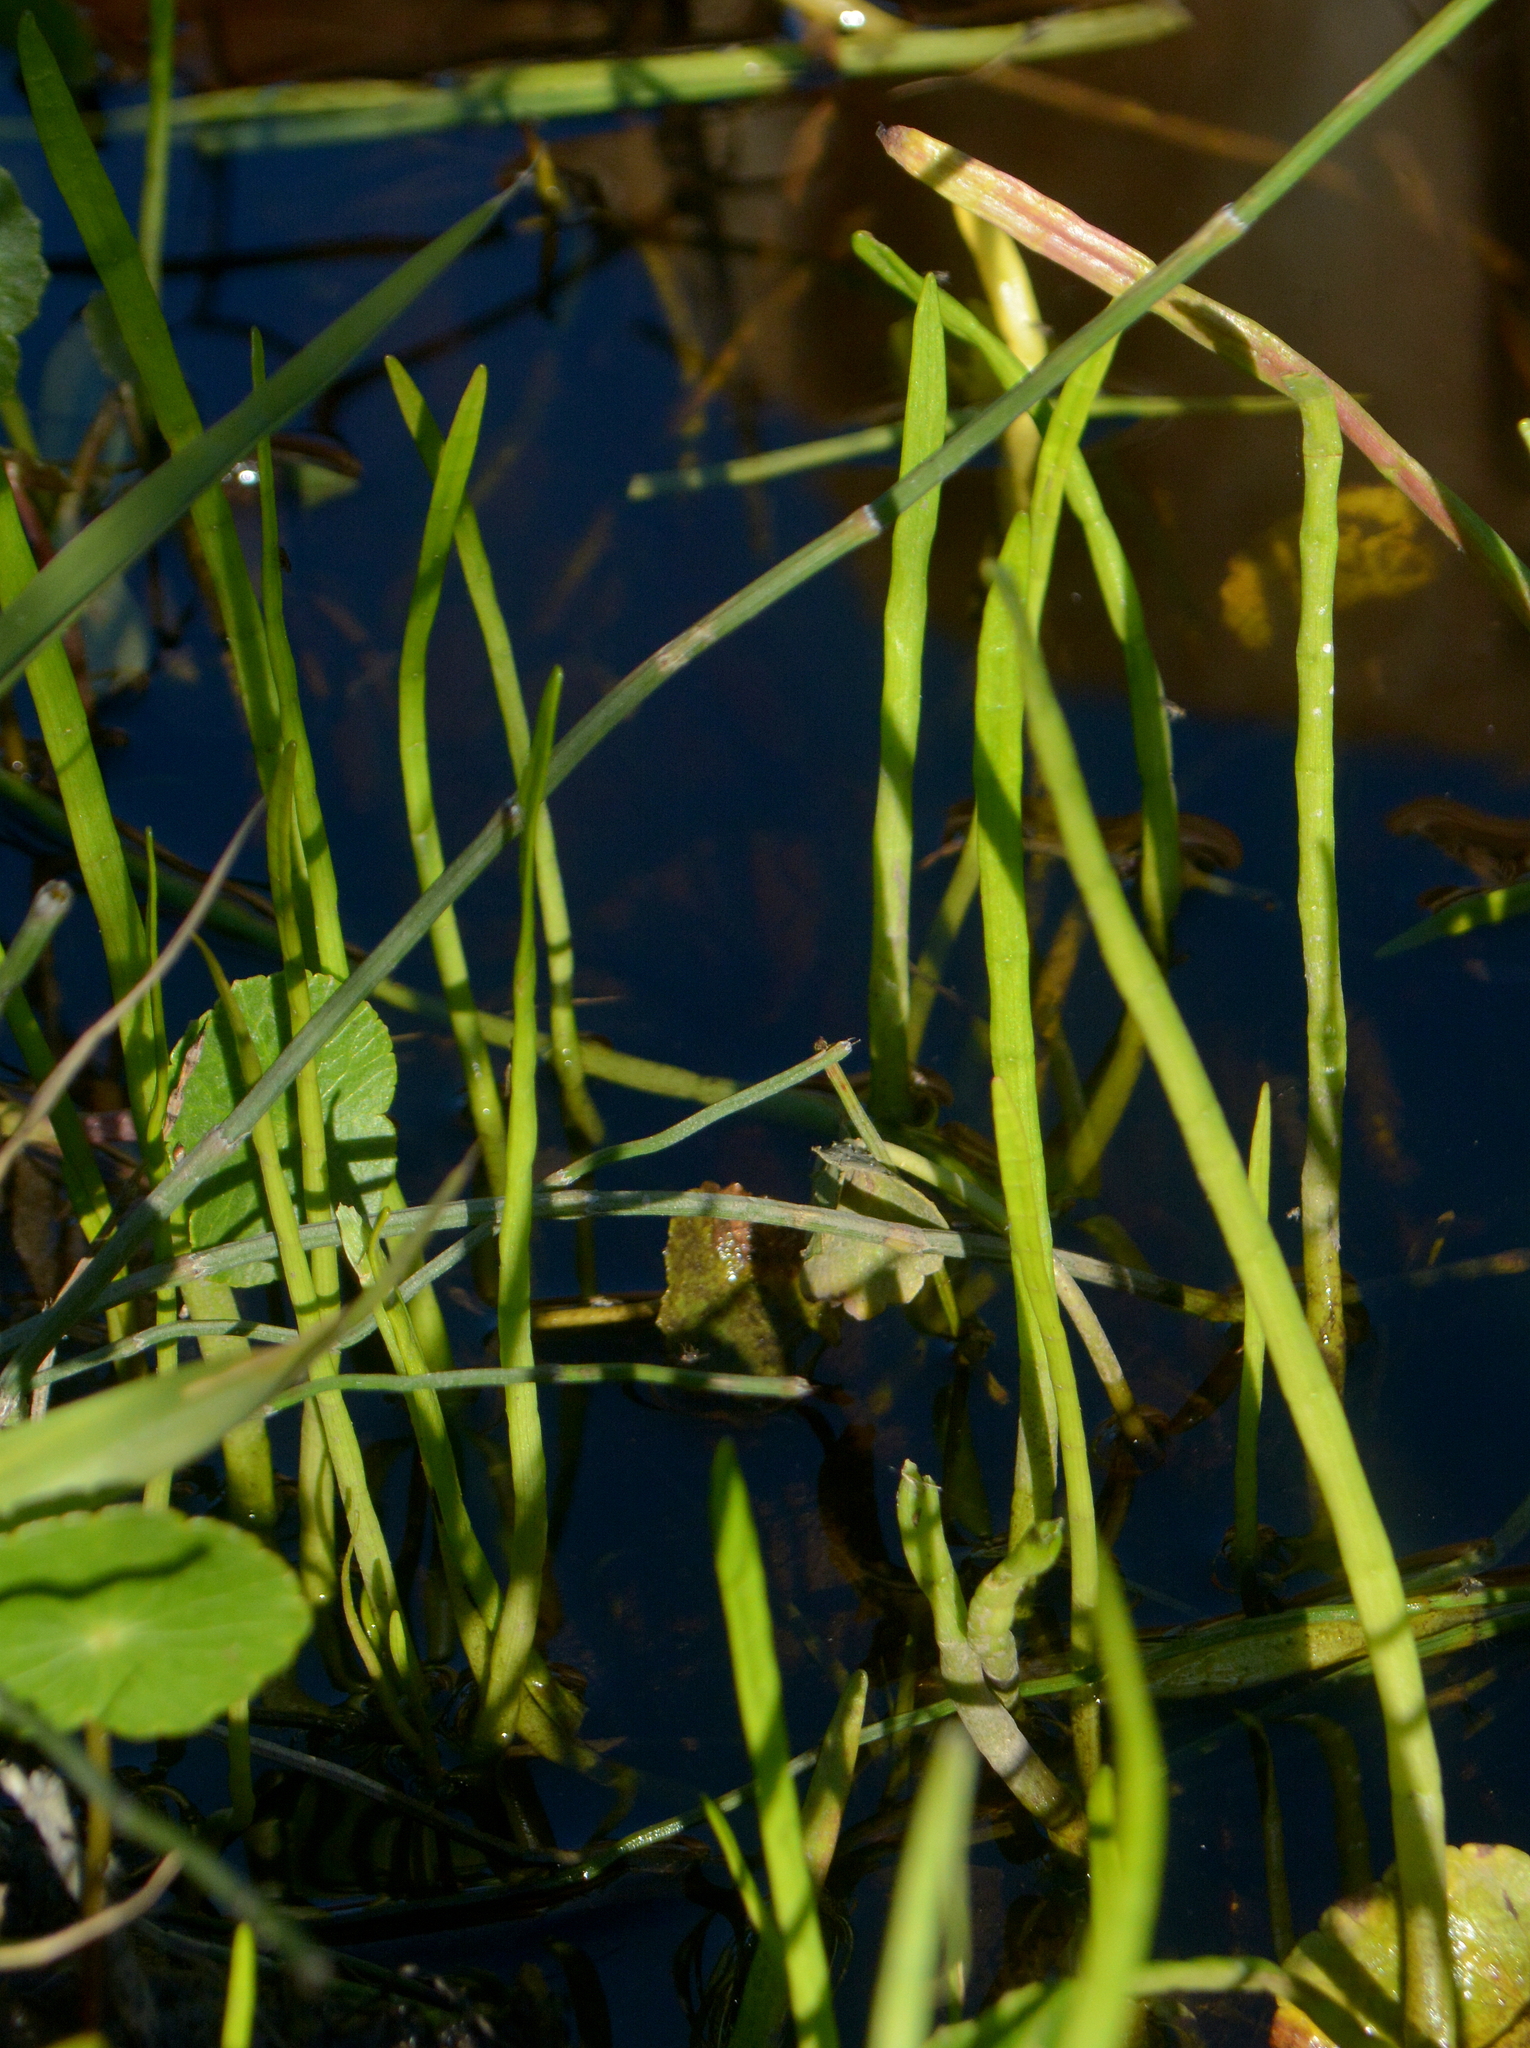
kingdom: Plantae
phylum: Tracheophyta
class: Magnoliopsida
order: Apiales
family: Apiaceae
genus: Lilaeopsis
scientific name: Lilaeopsis minor
